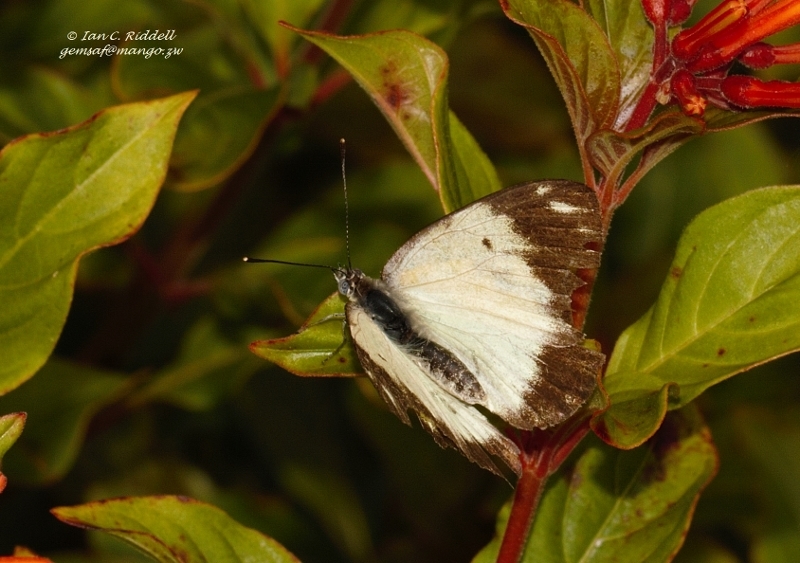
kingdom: Animalia
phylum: Arthropoda
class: Insecta
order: Lepidoptera
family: Pieridae
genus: Belenois
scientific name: Belenois creona
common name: African caper white
